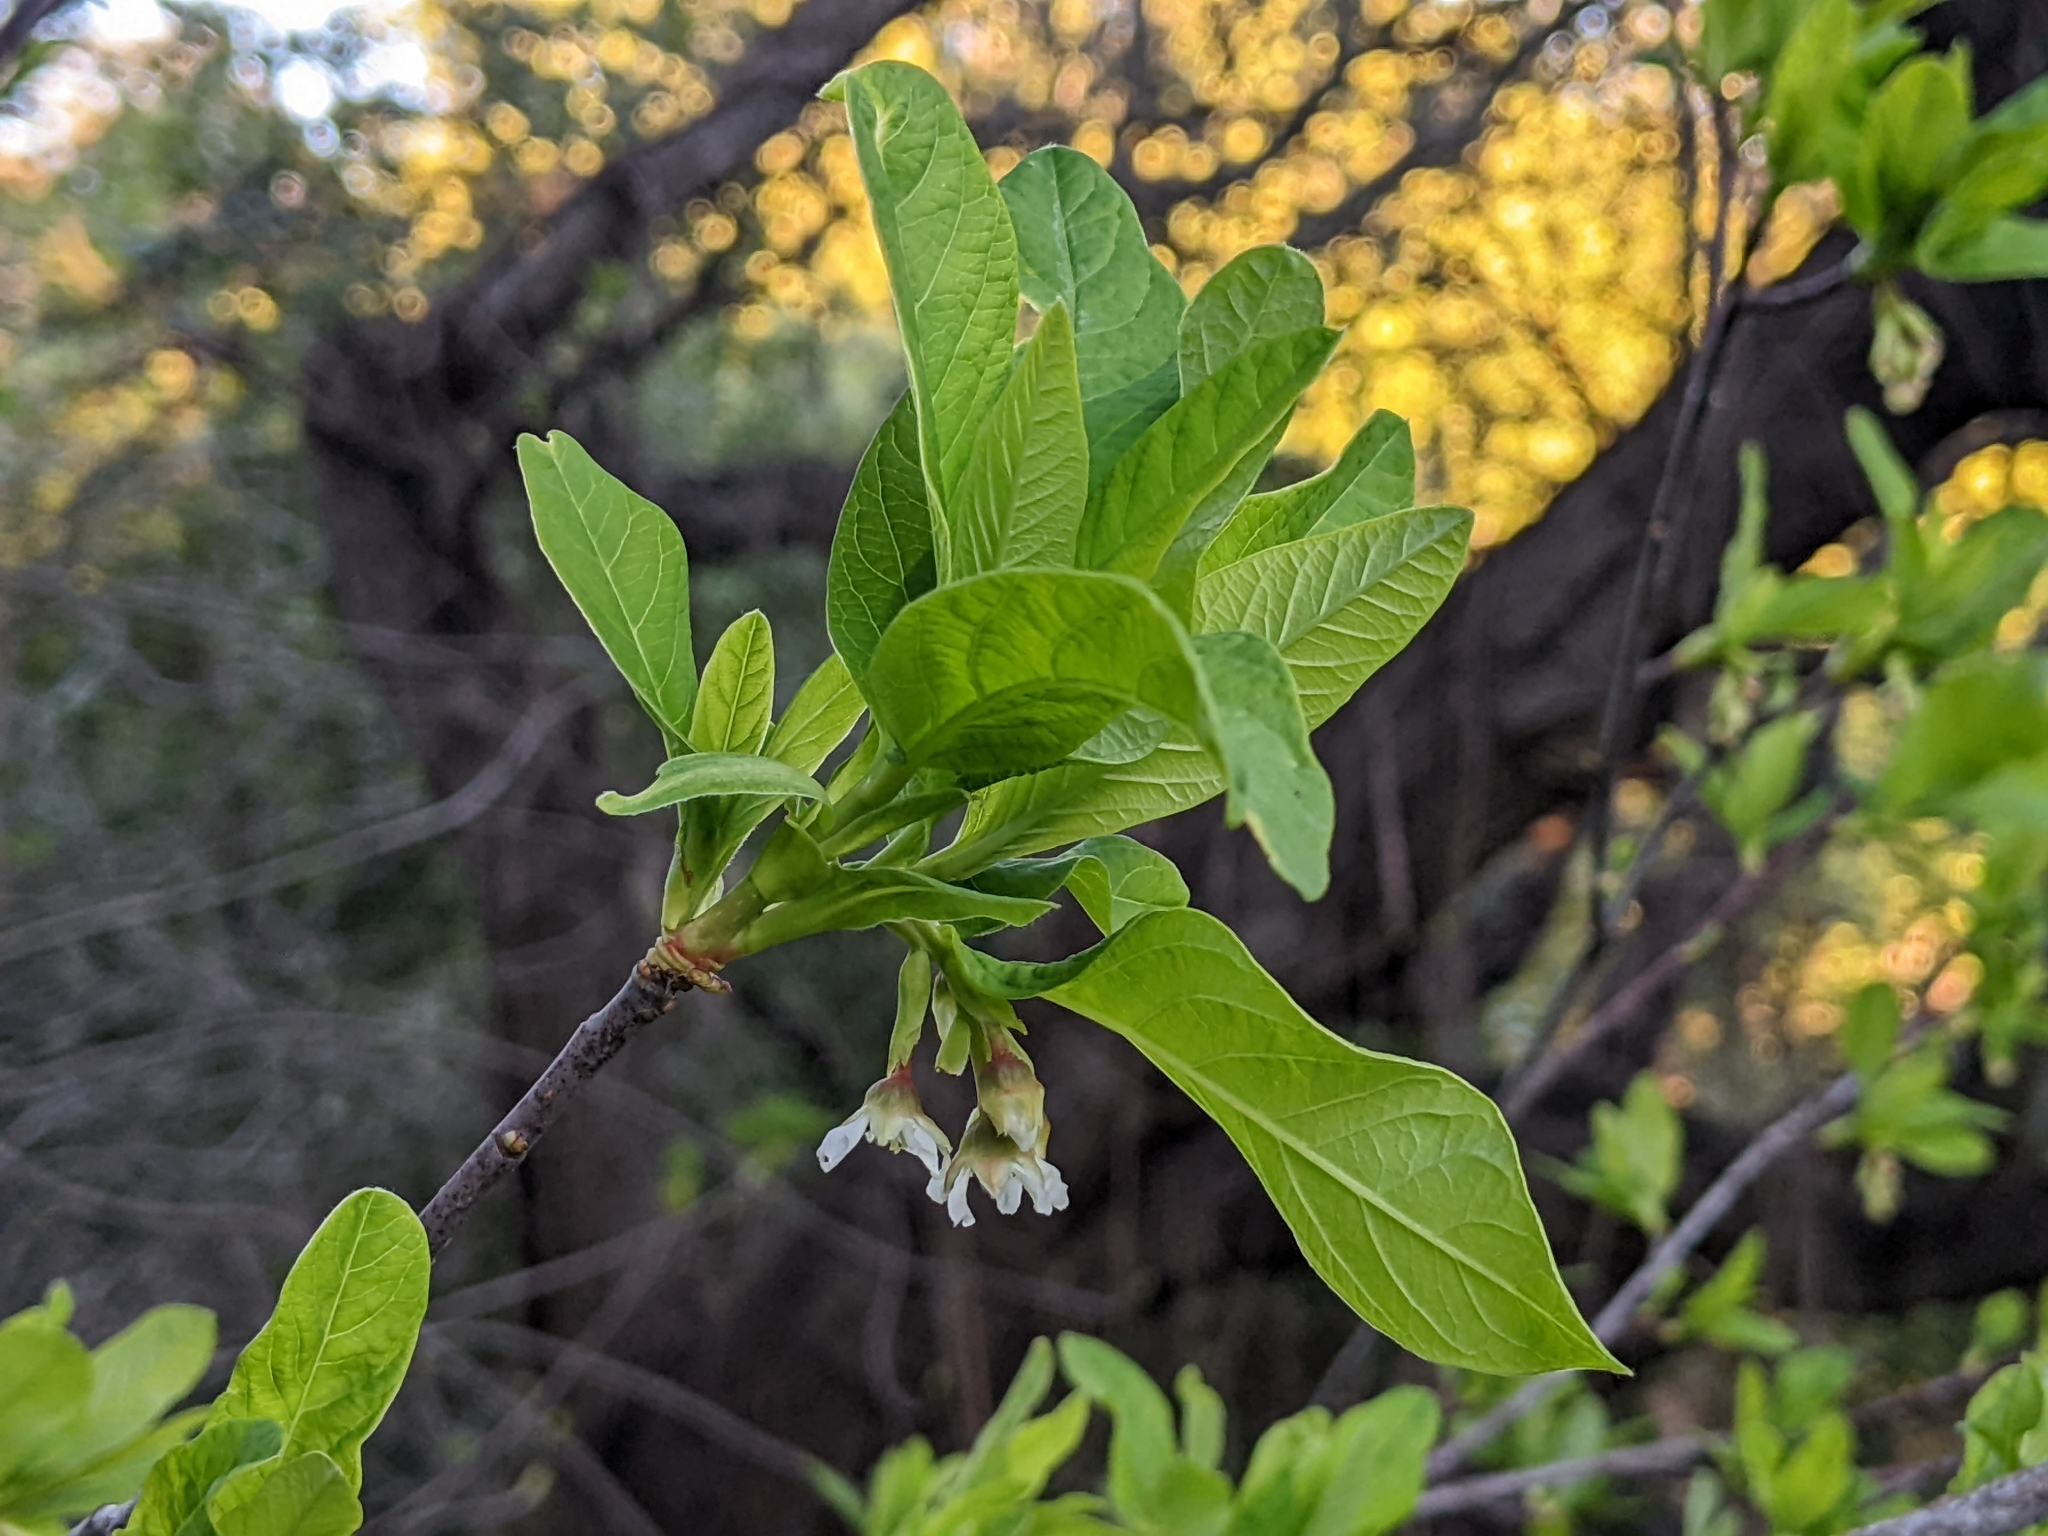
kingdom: Plantae
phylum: Tracheophyta
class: Magnoliopsida
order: Rosales
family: Rosaceae
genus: Oemleria
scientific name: Oemleria cerasiformis
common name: Osoberry
